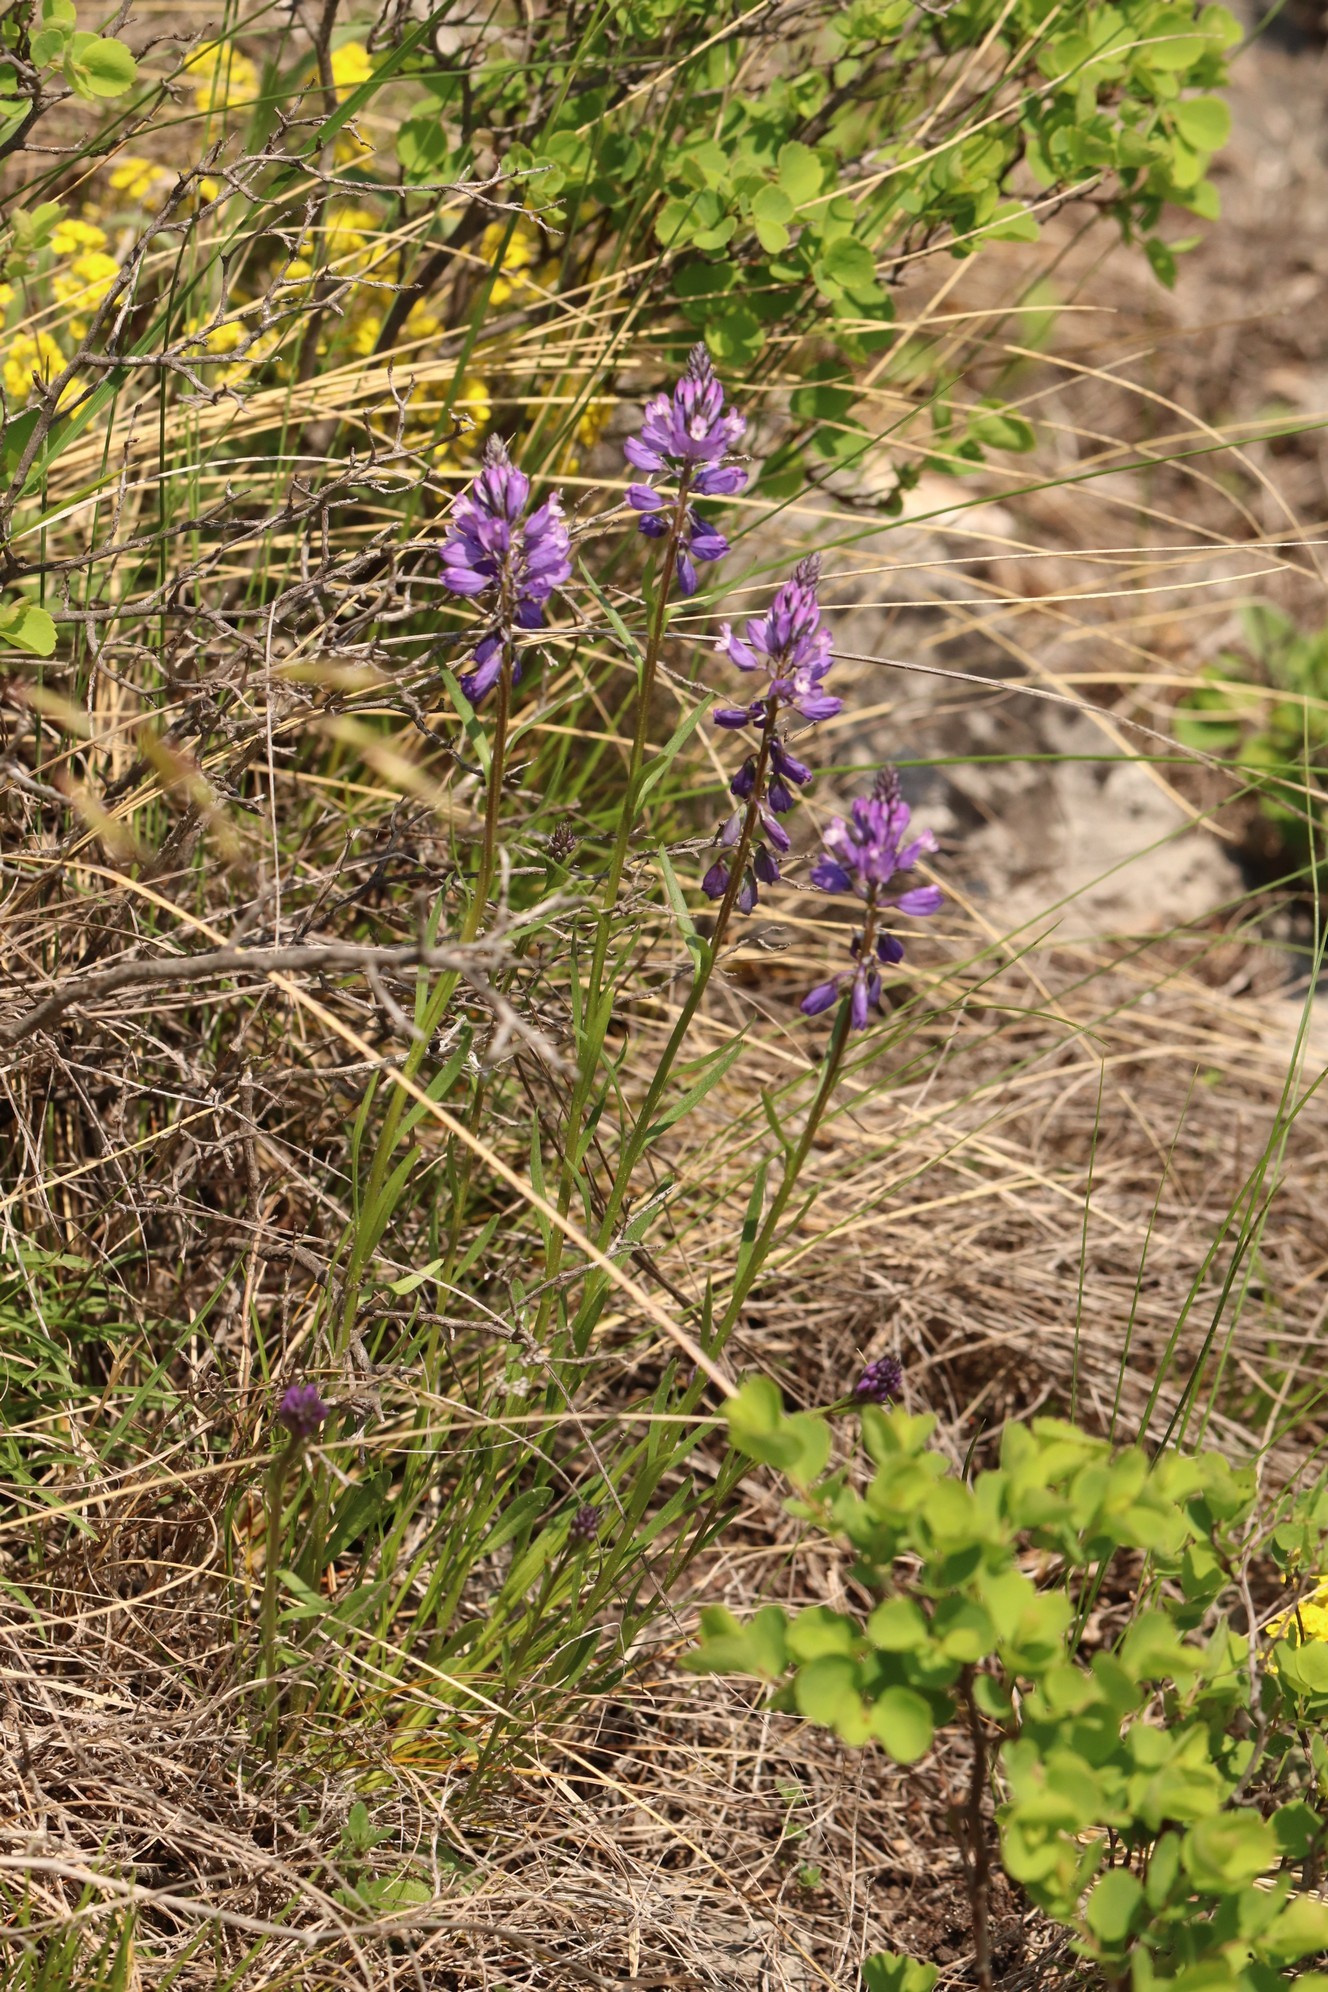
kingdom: Plantae
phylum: Tracheophyta
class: Magnoliopsida
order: Fabales
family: Polygalaceae
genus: Polygala
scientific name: Polygala comosa
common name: Tufted milkwort
